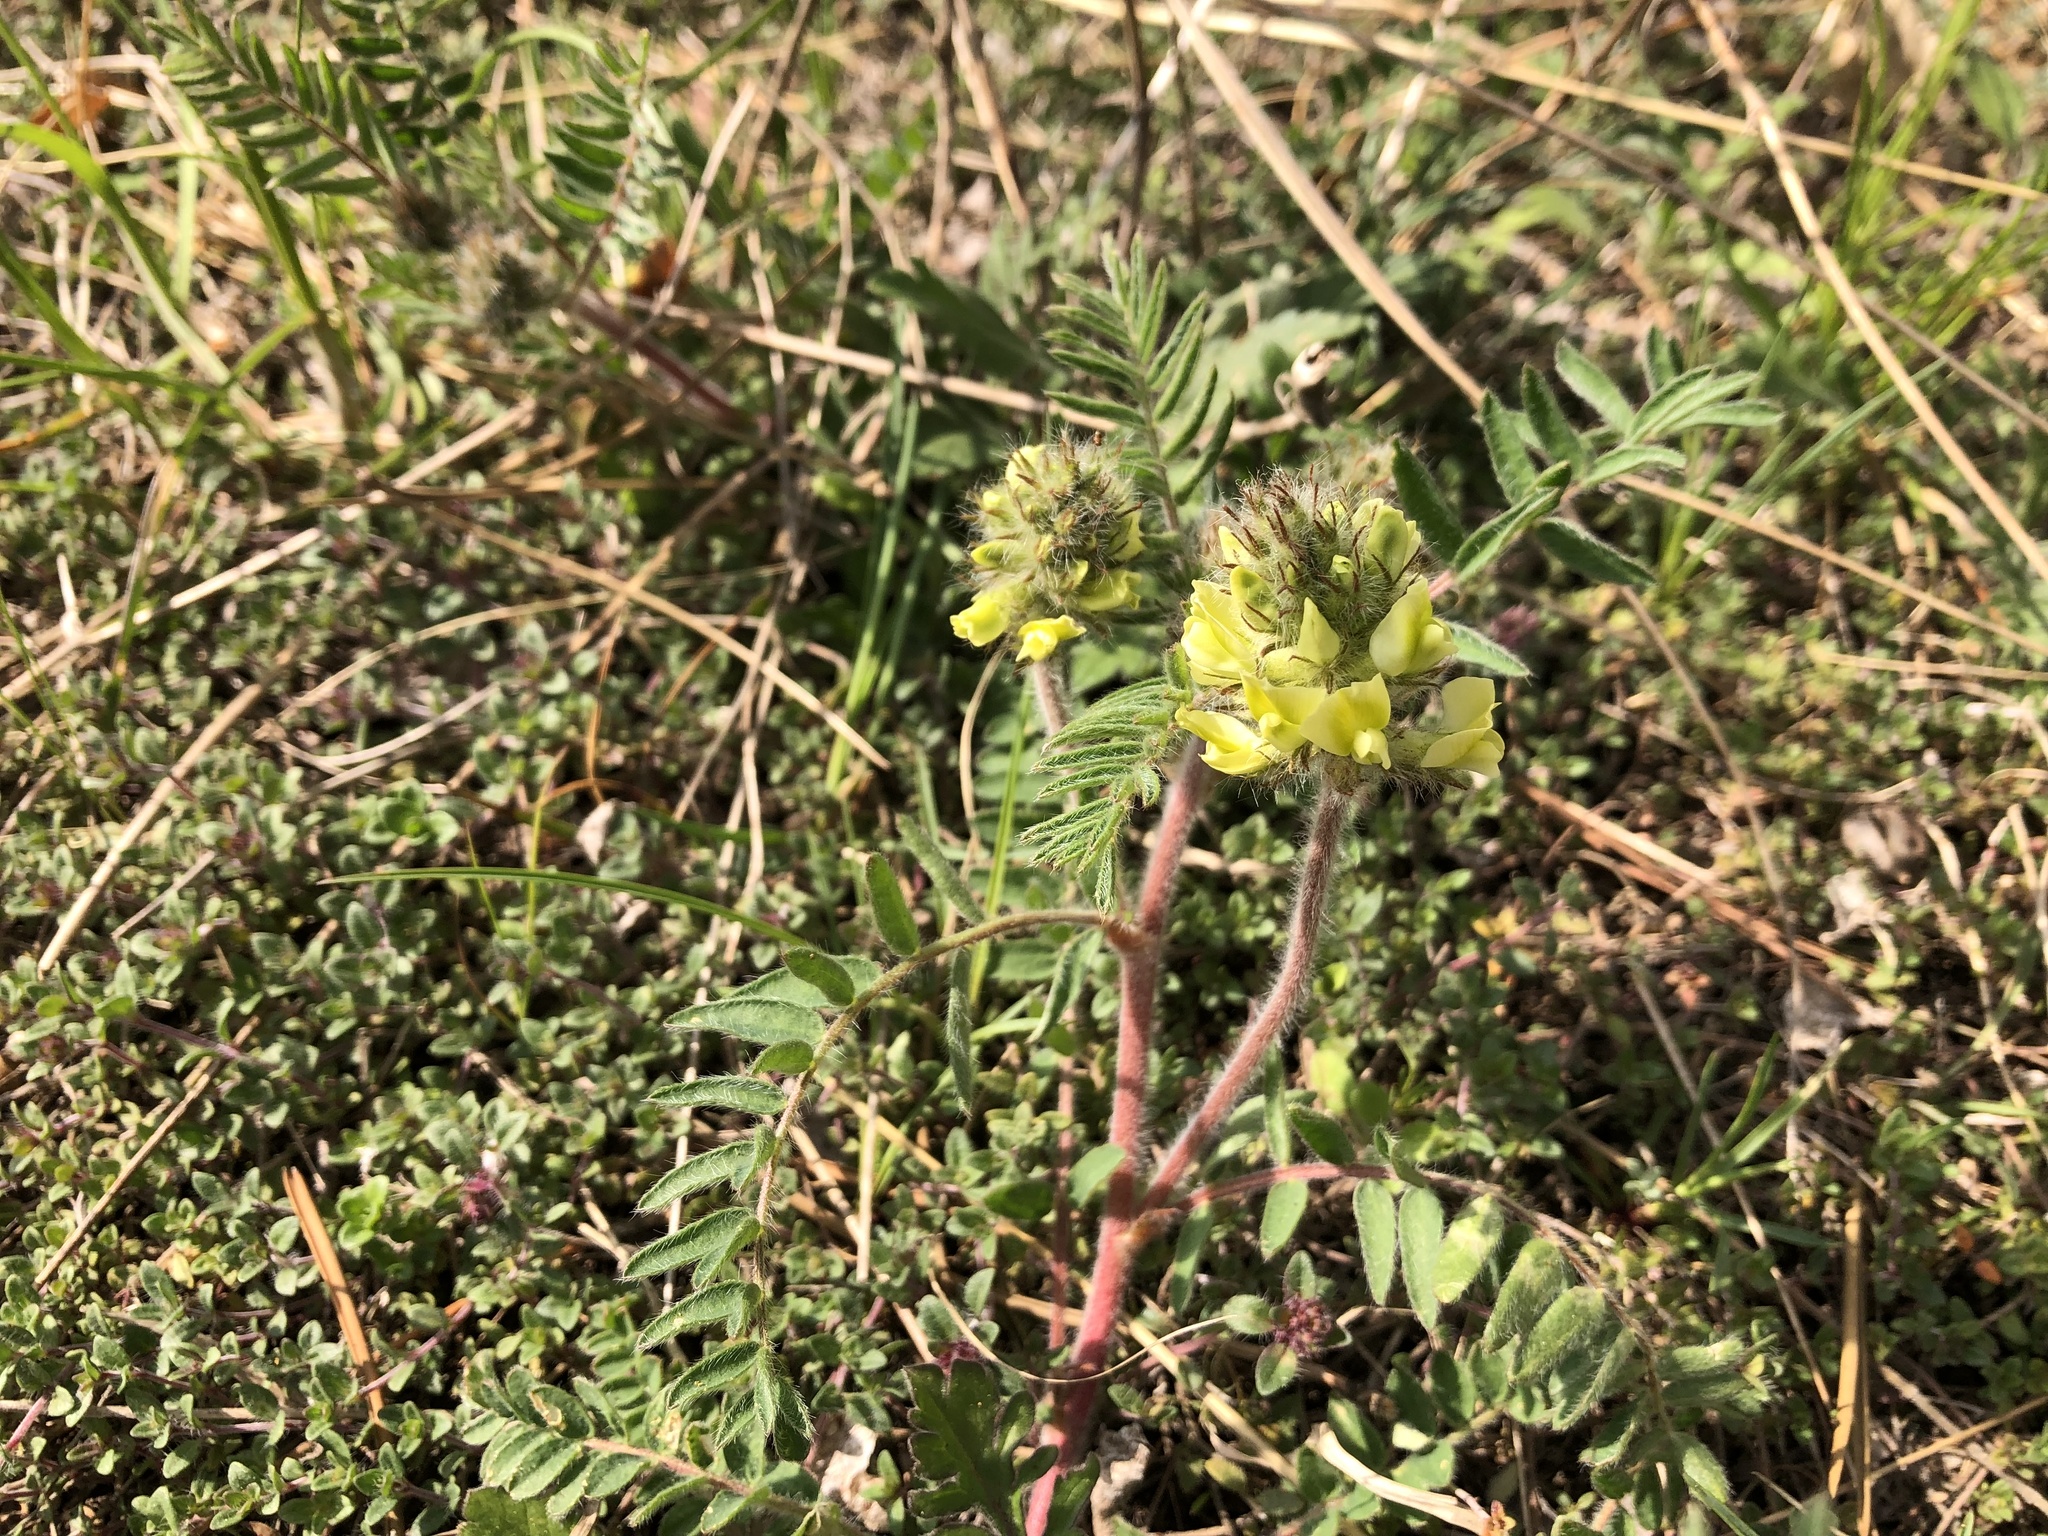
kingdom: Plantae
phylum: Tracheophyta
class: Magnoliopsida
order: Fabales
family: Fabaceae
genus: Oxytropis
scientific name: Oxytropis pilosa
